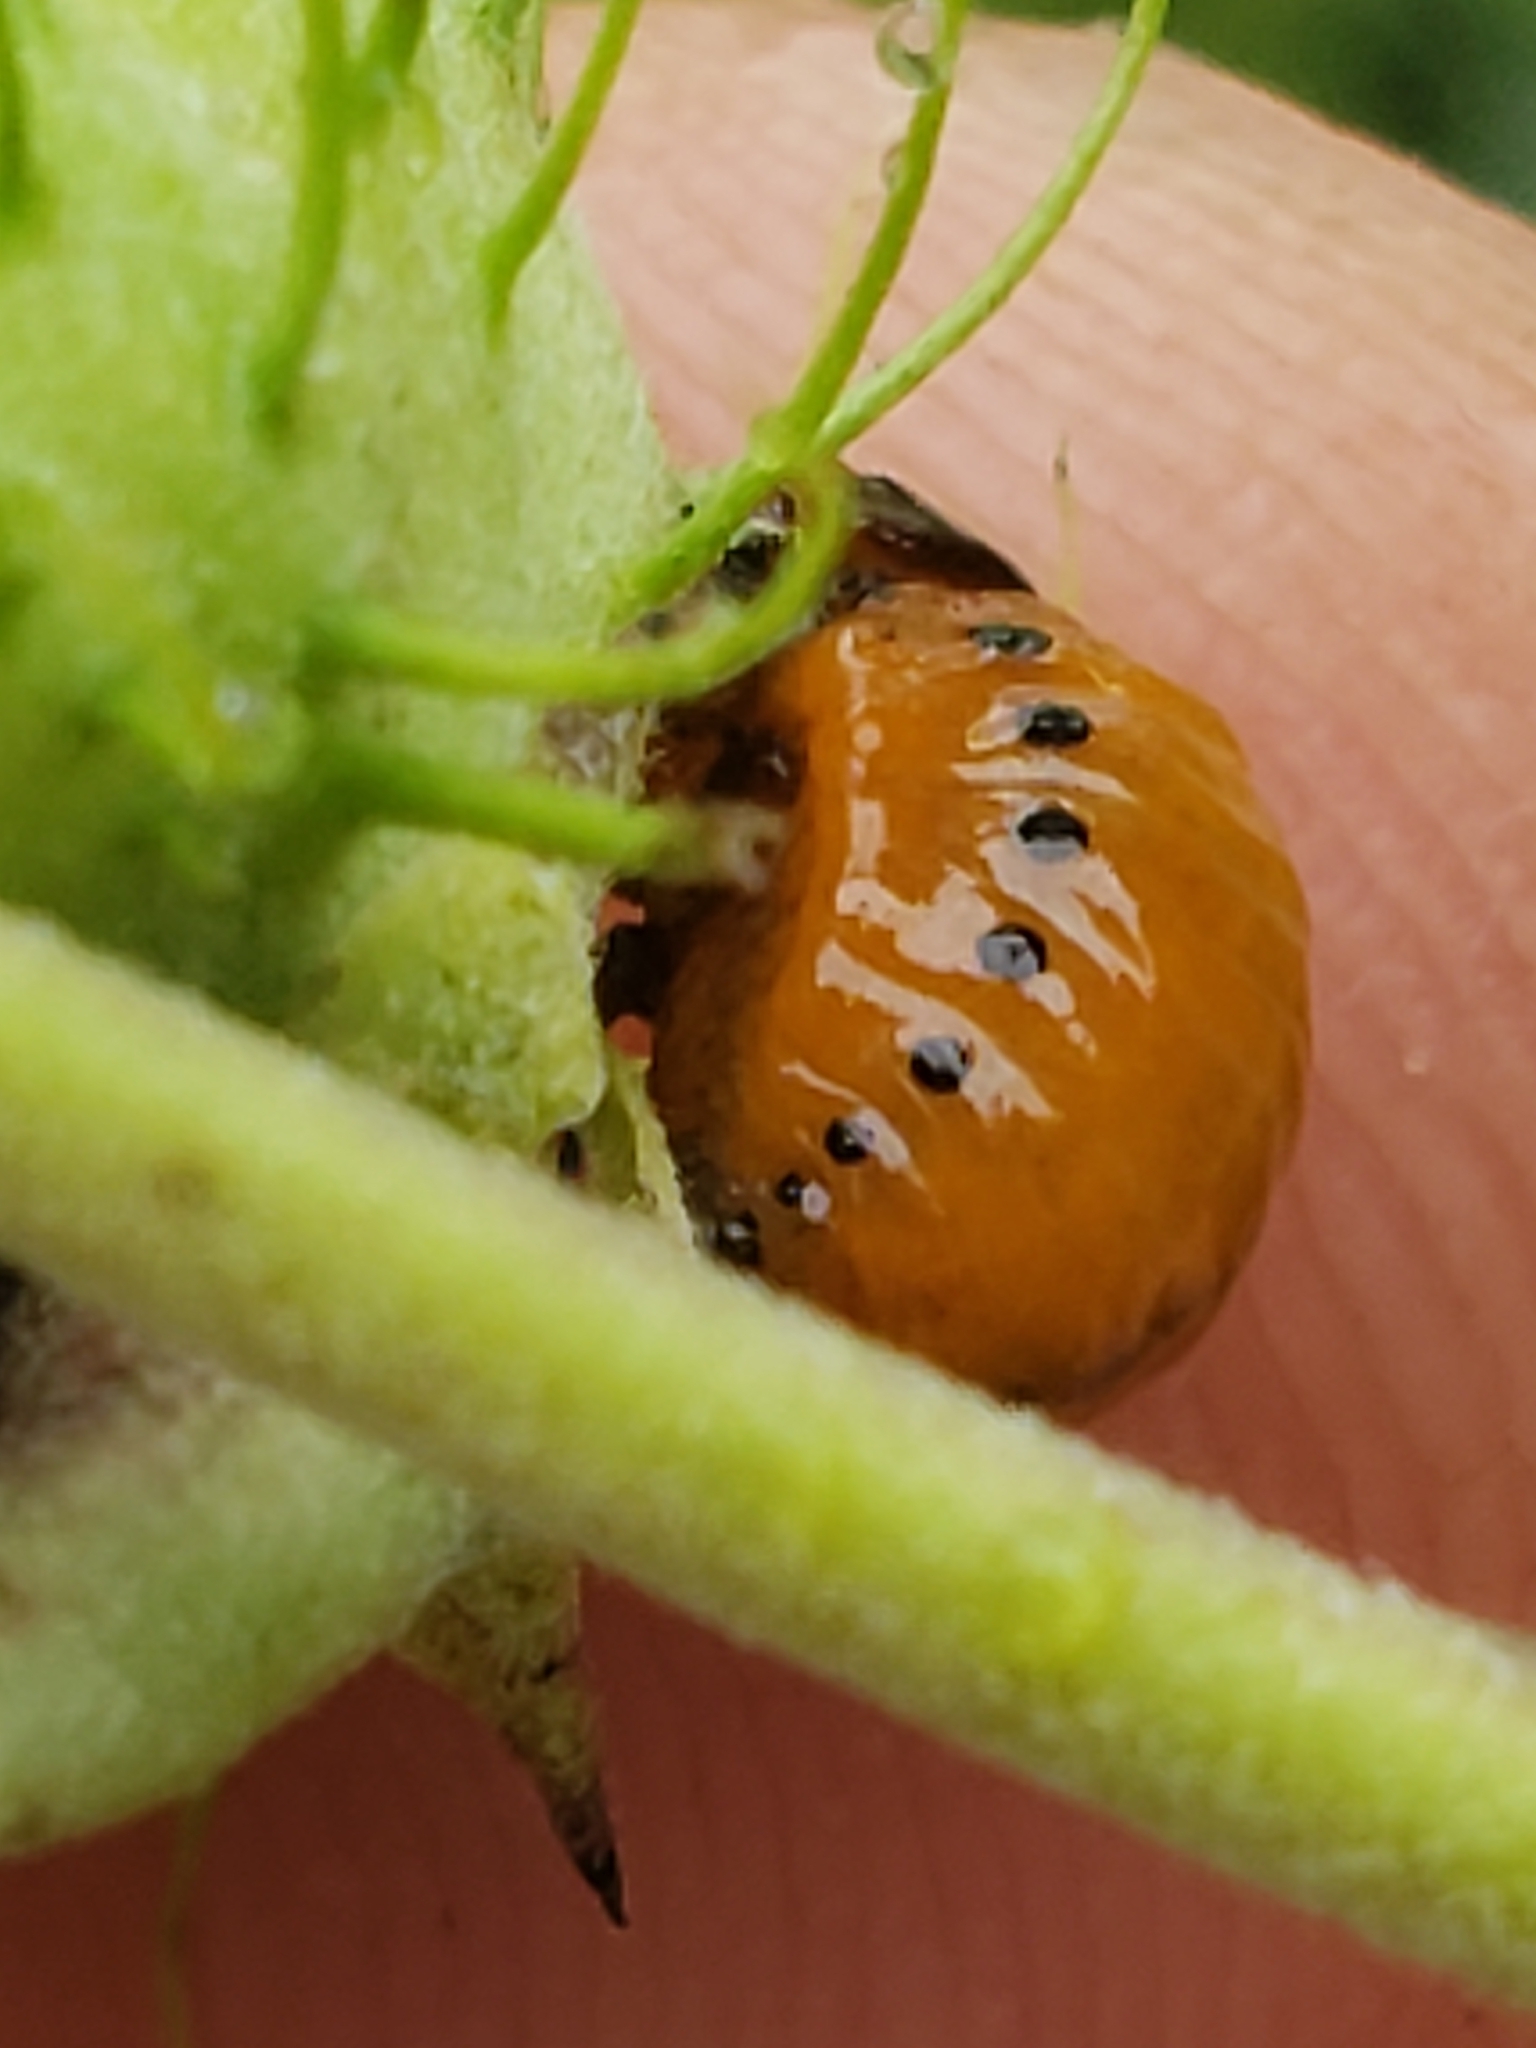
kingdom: Animalia
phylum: Arthropoda
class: Insecta
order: Coleoptera
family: Chrysomelidae
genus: Labidomera
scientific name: Labidomera clivicollis
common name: Swamp milkweed leaf beetle
